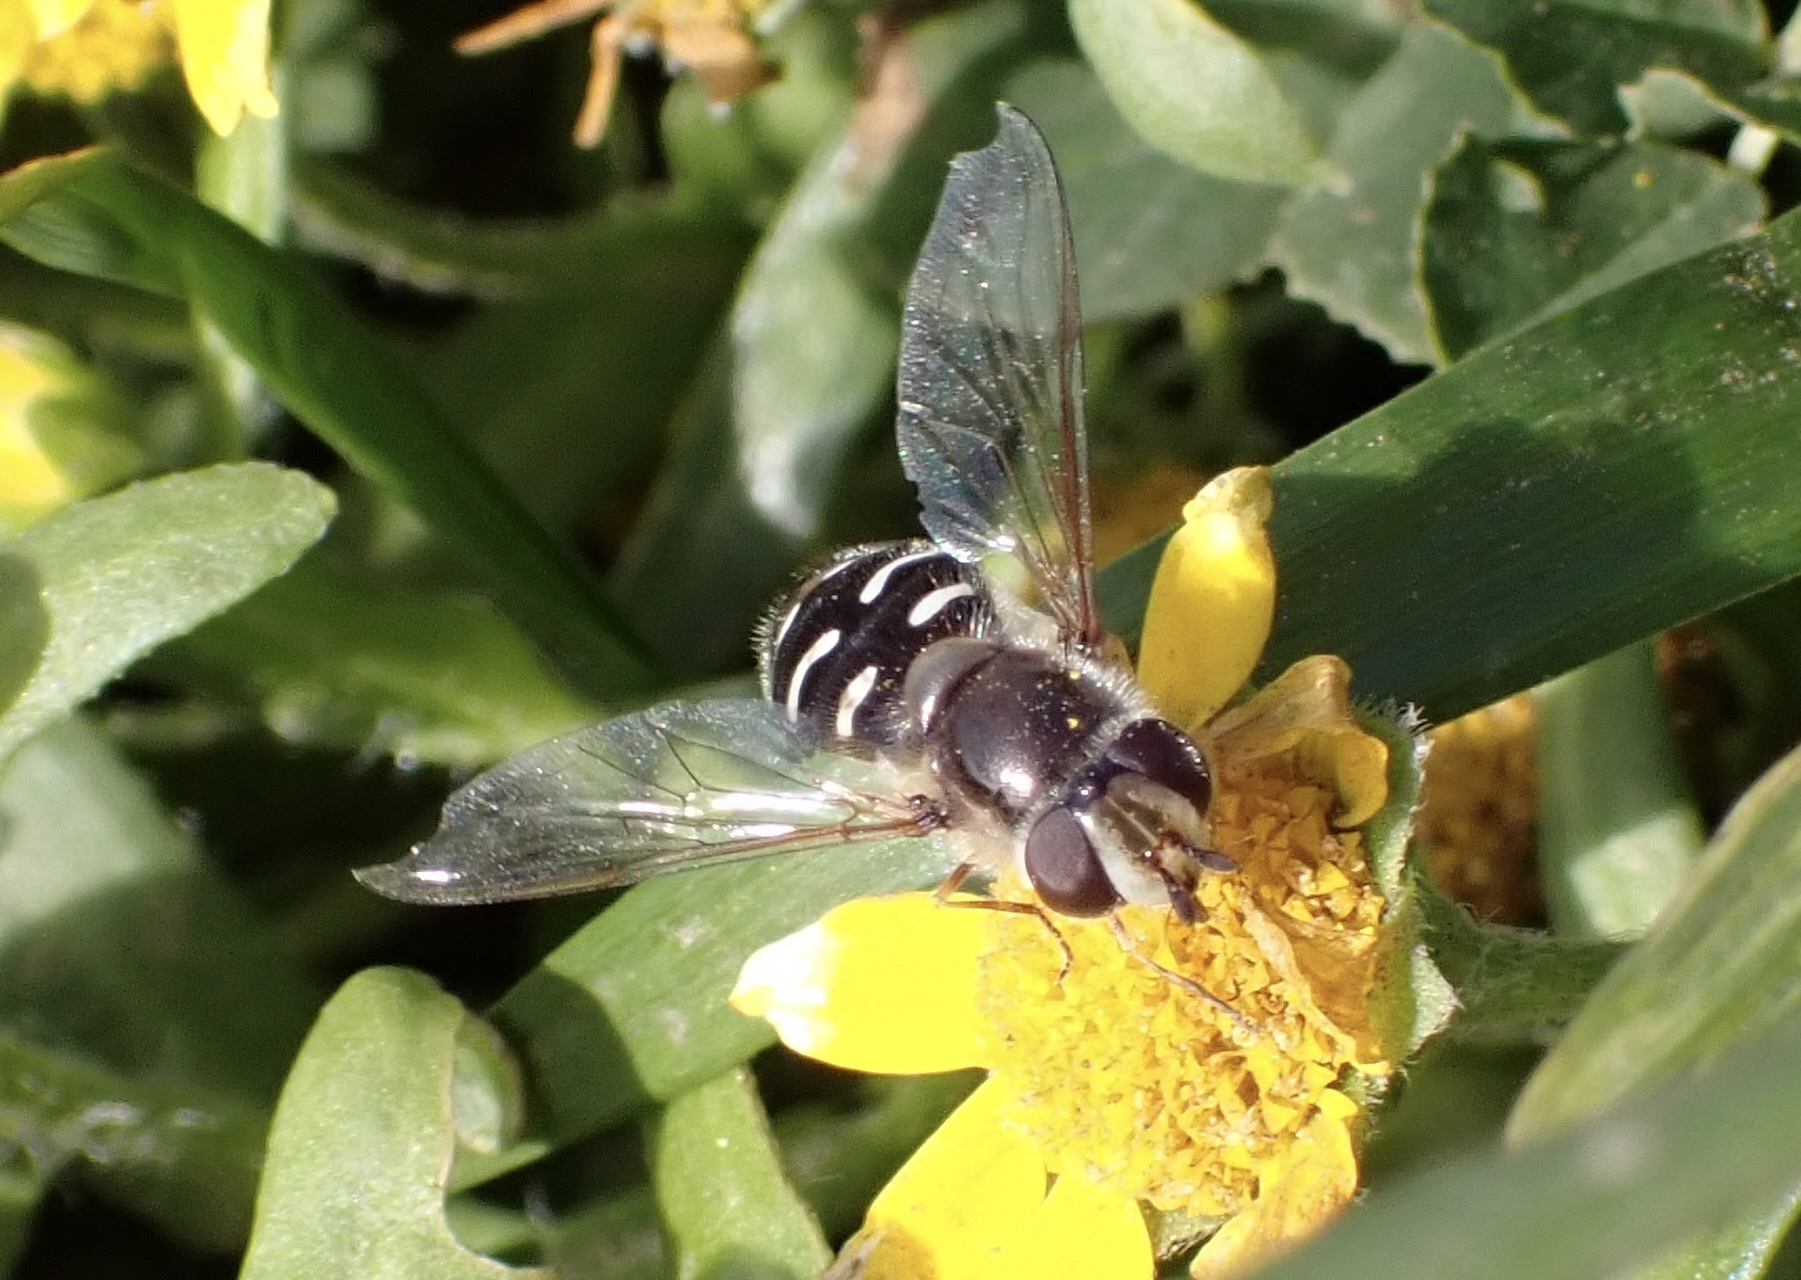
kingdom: Animalia
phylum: Arthropoda
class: Insecta
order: Diptera
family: Syrphidae
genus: Scaeva
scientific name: Scaeva affinis
